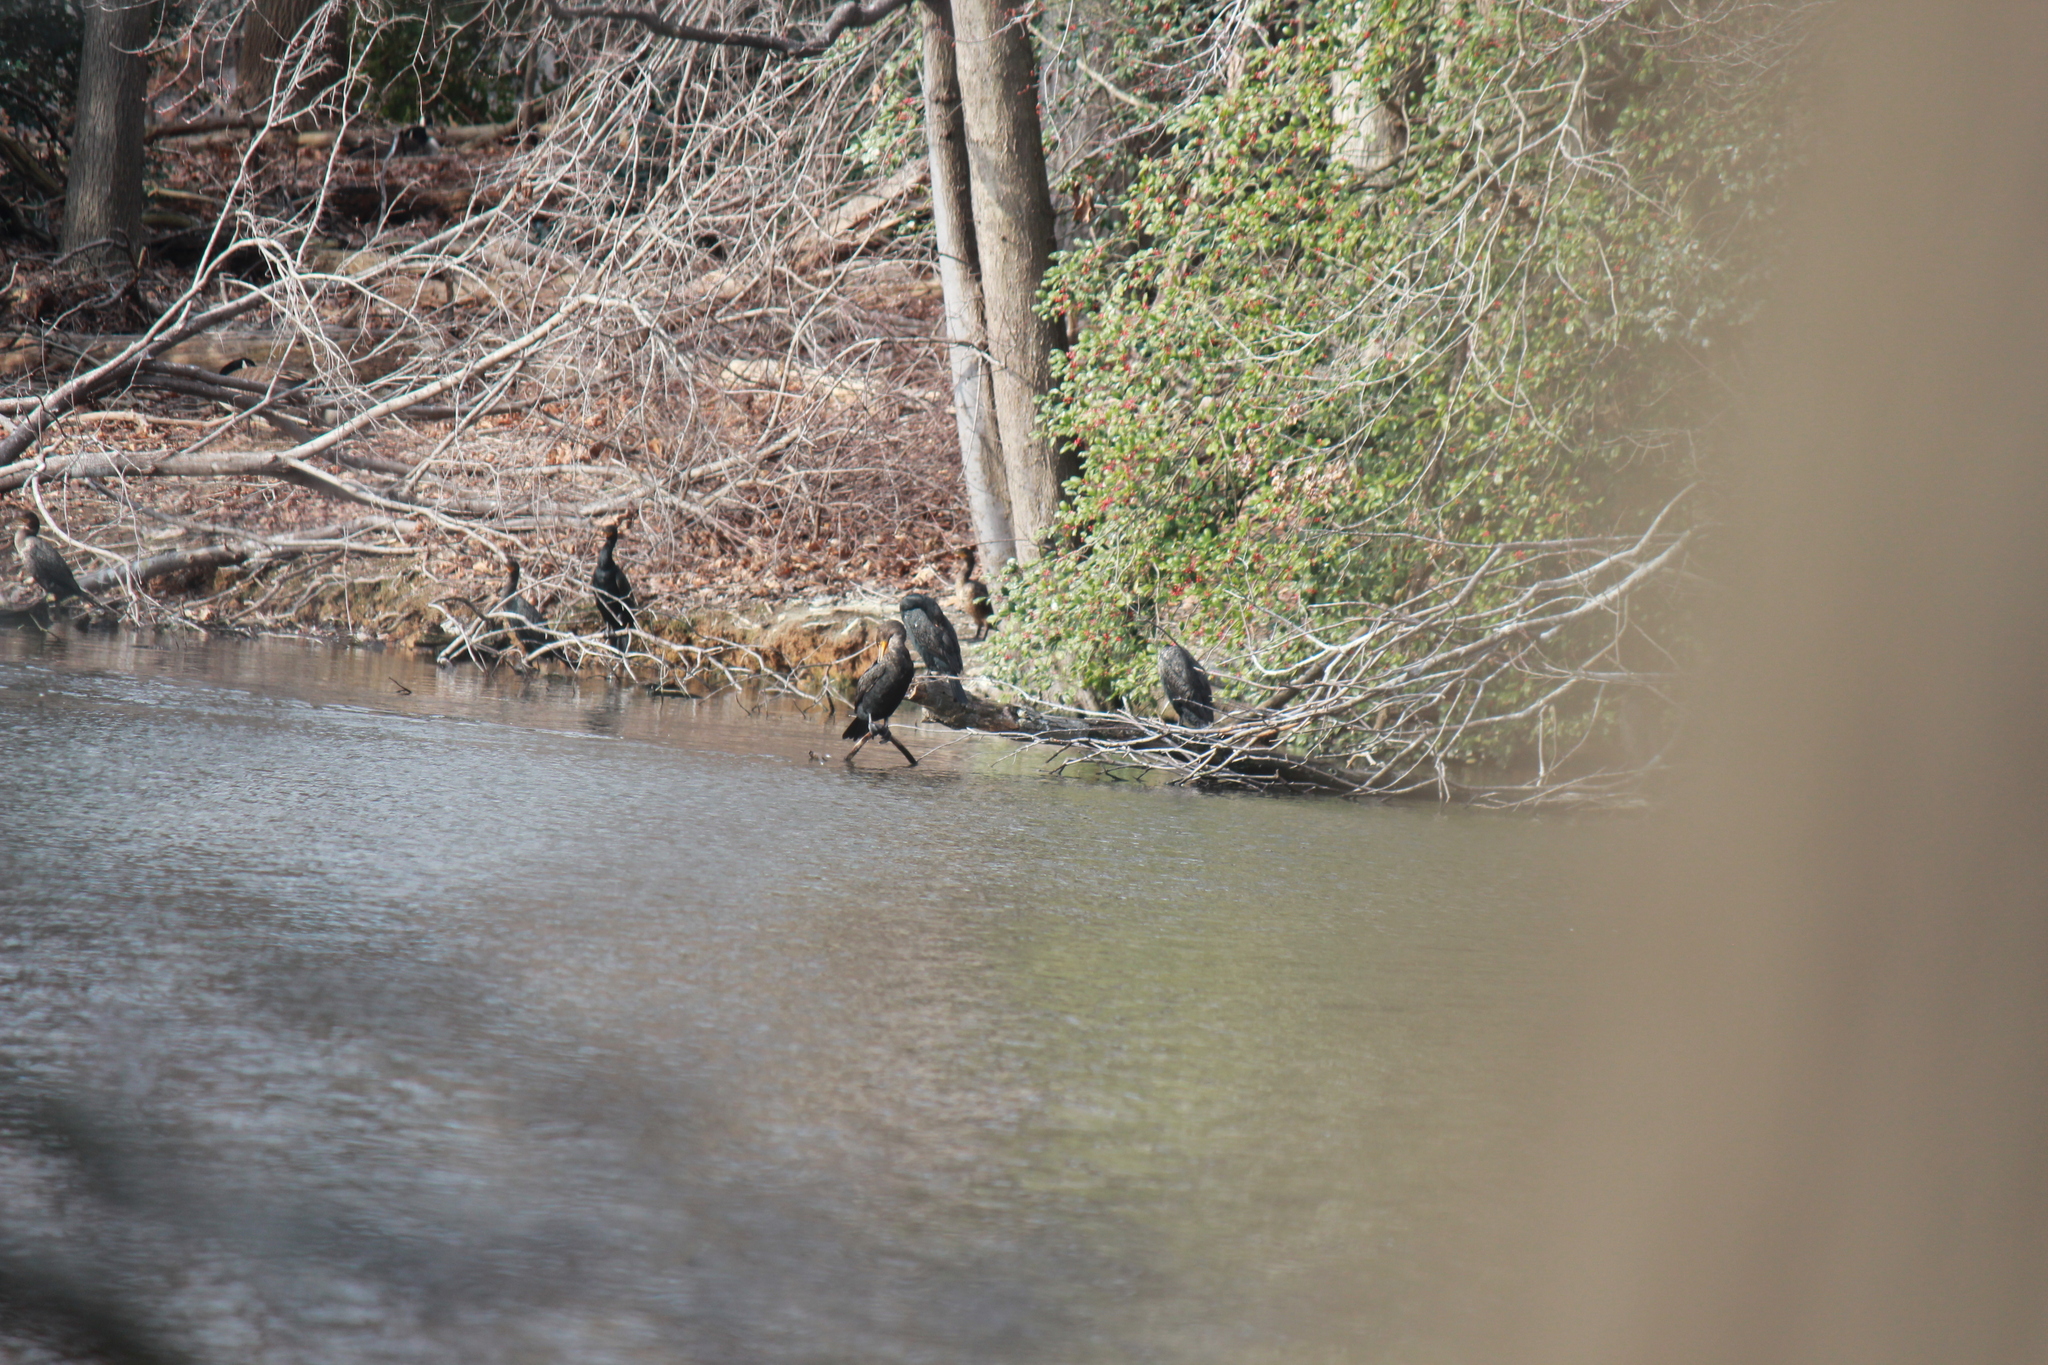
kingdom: Animalia
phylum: Chordata
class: Aves
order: Suliformes
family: Phalacrocoracidae
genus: Phalacrocorax
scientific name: Phalacrocorax auritus
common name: Double-crested cormorant
